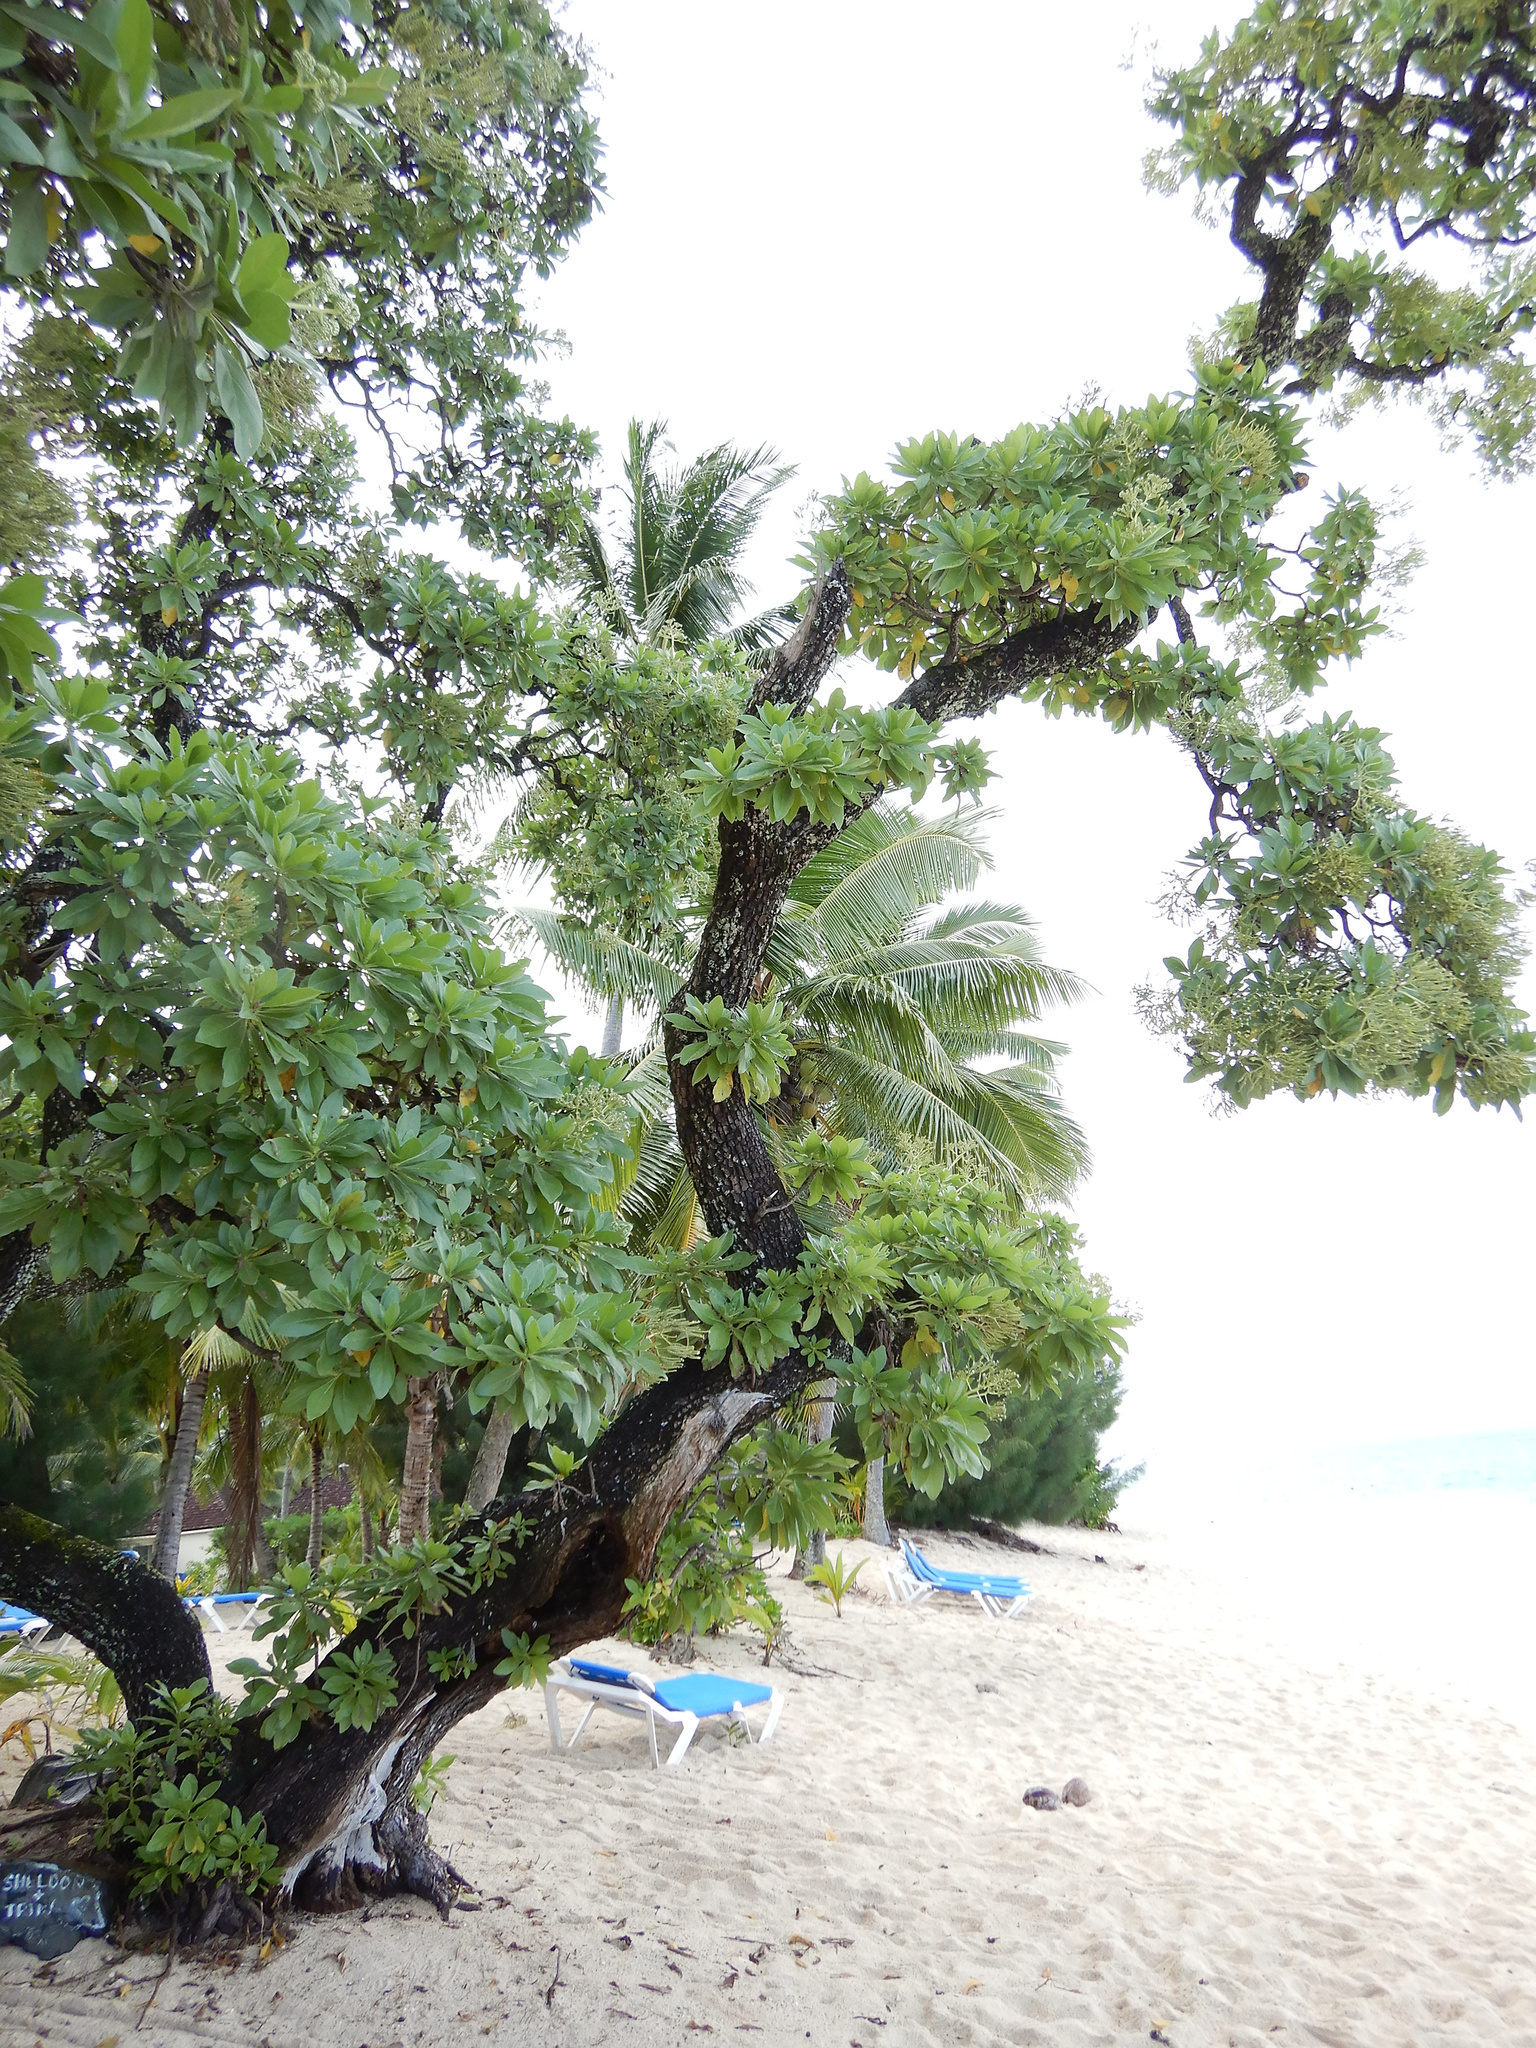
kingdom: Plantae
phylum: Tracheophyta
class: Magnoliopsida
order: Boraginales
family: Heliotropiaceae
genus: Heliotropium
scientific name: Heliotropium velutinum
